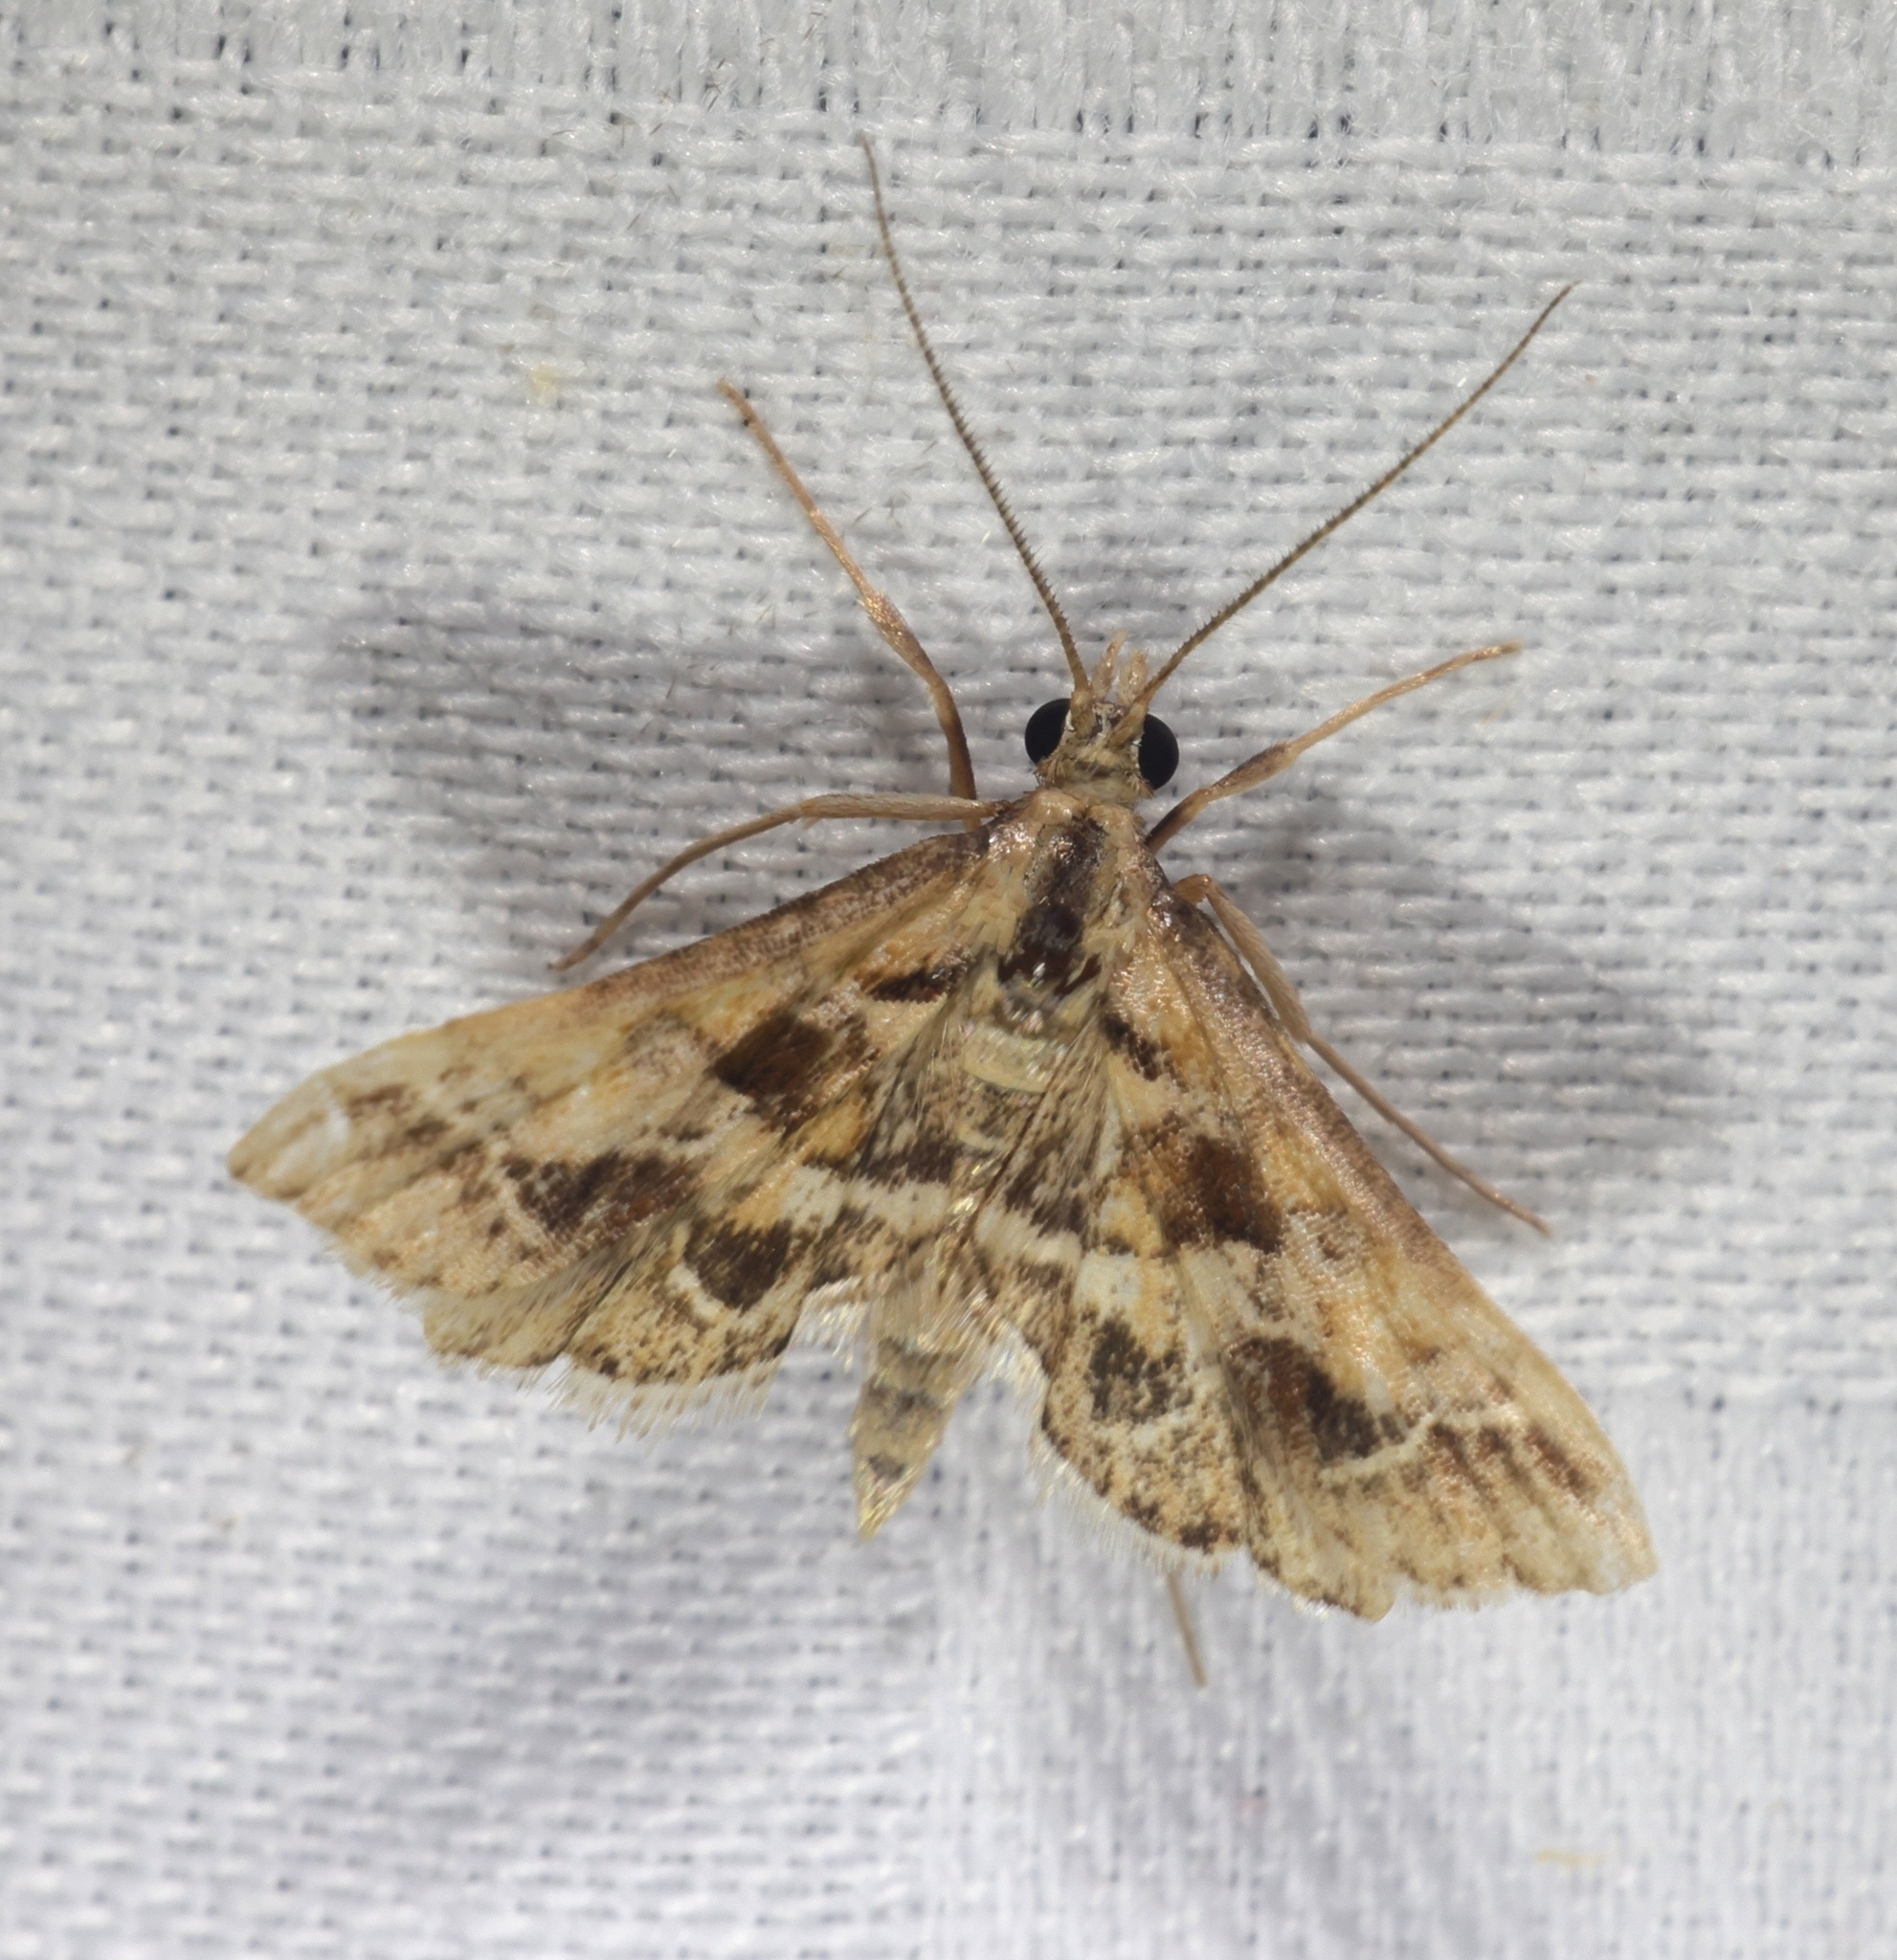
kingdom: Animalia
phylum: Arthropoda
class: Insecta
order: Lepidoptera
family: Crambidae
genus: Diasemia
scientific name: Diasemia accalis
